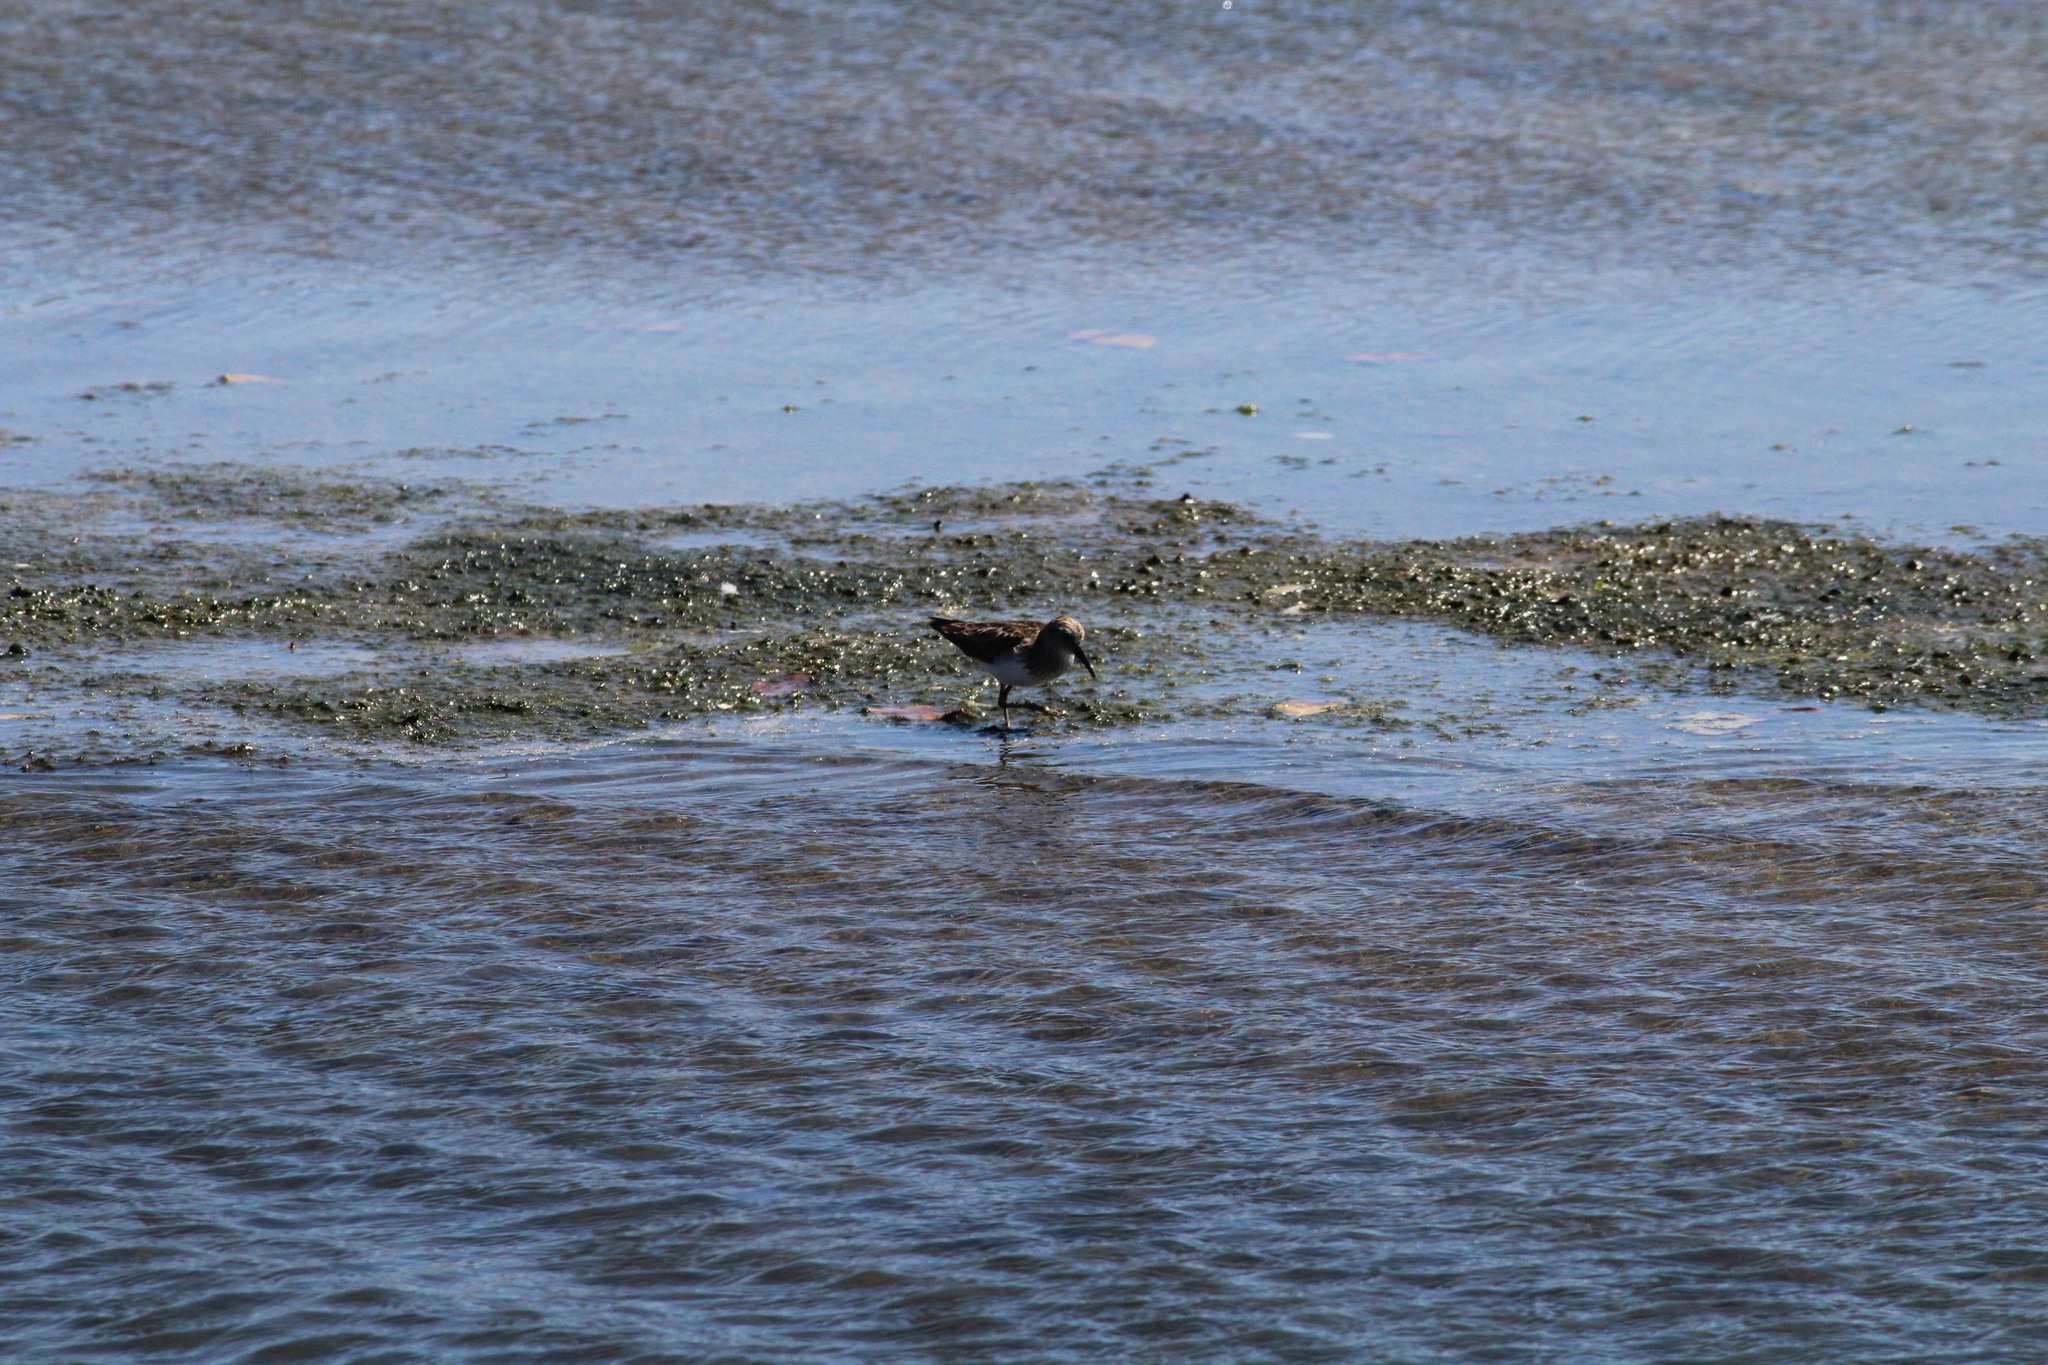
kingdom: Animalia
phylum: Chordata
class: Aves
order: Charadriiformes
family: Scolopacidae
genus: Calidris
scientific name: Calidris minutilla
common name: Least sandpiper
